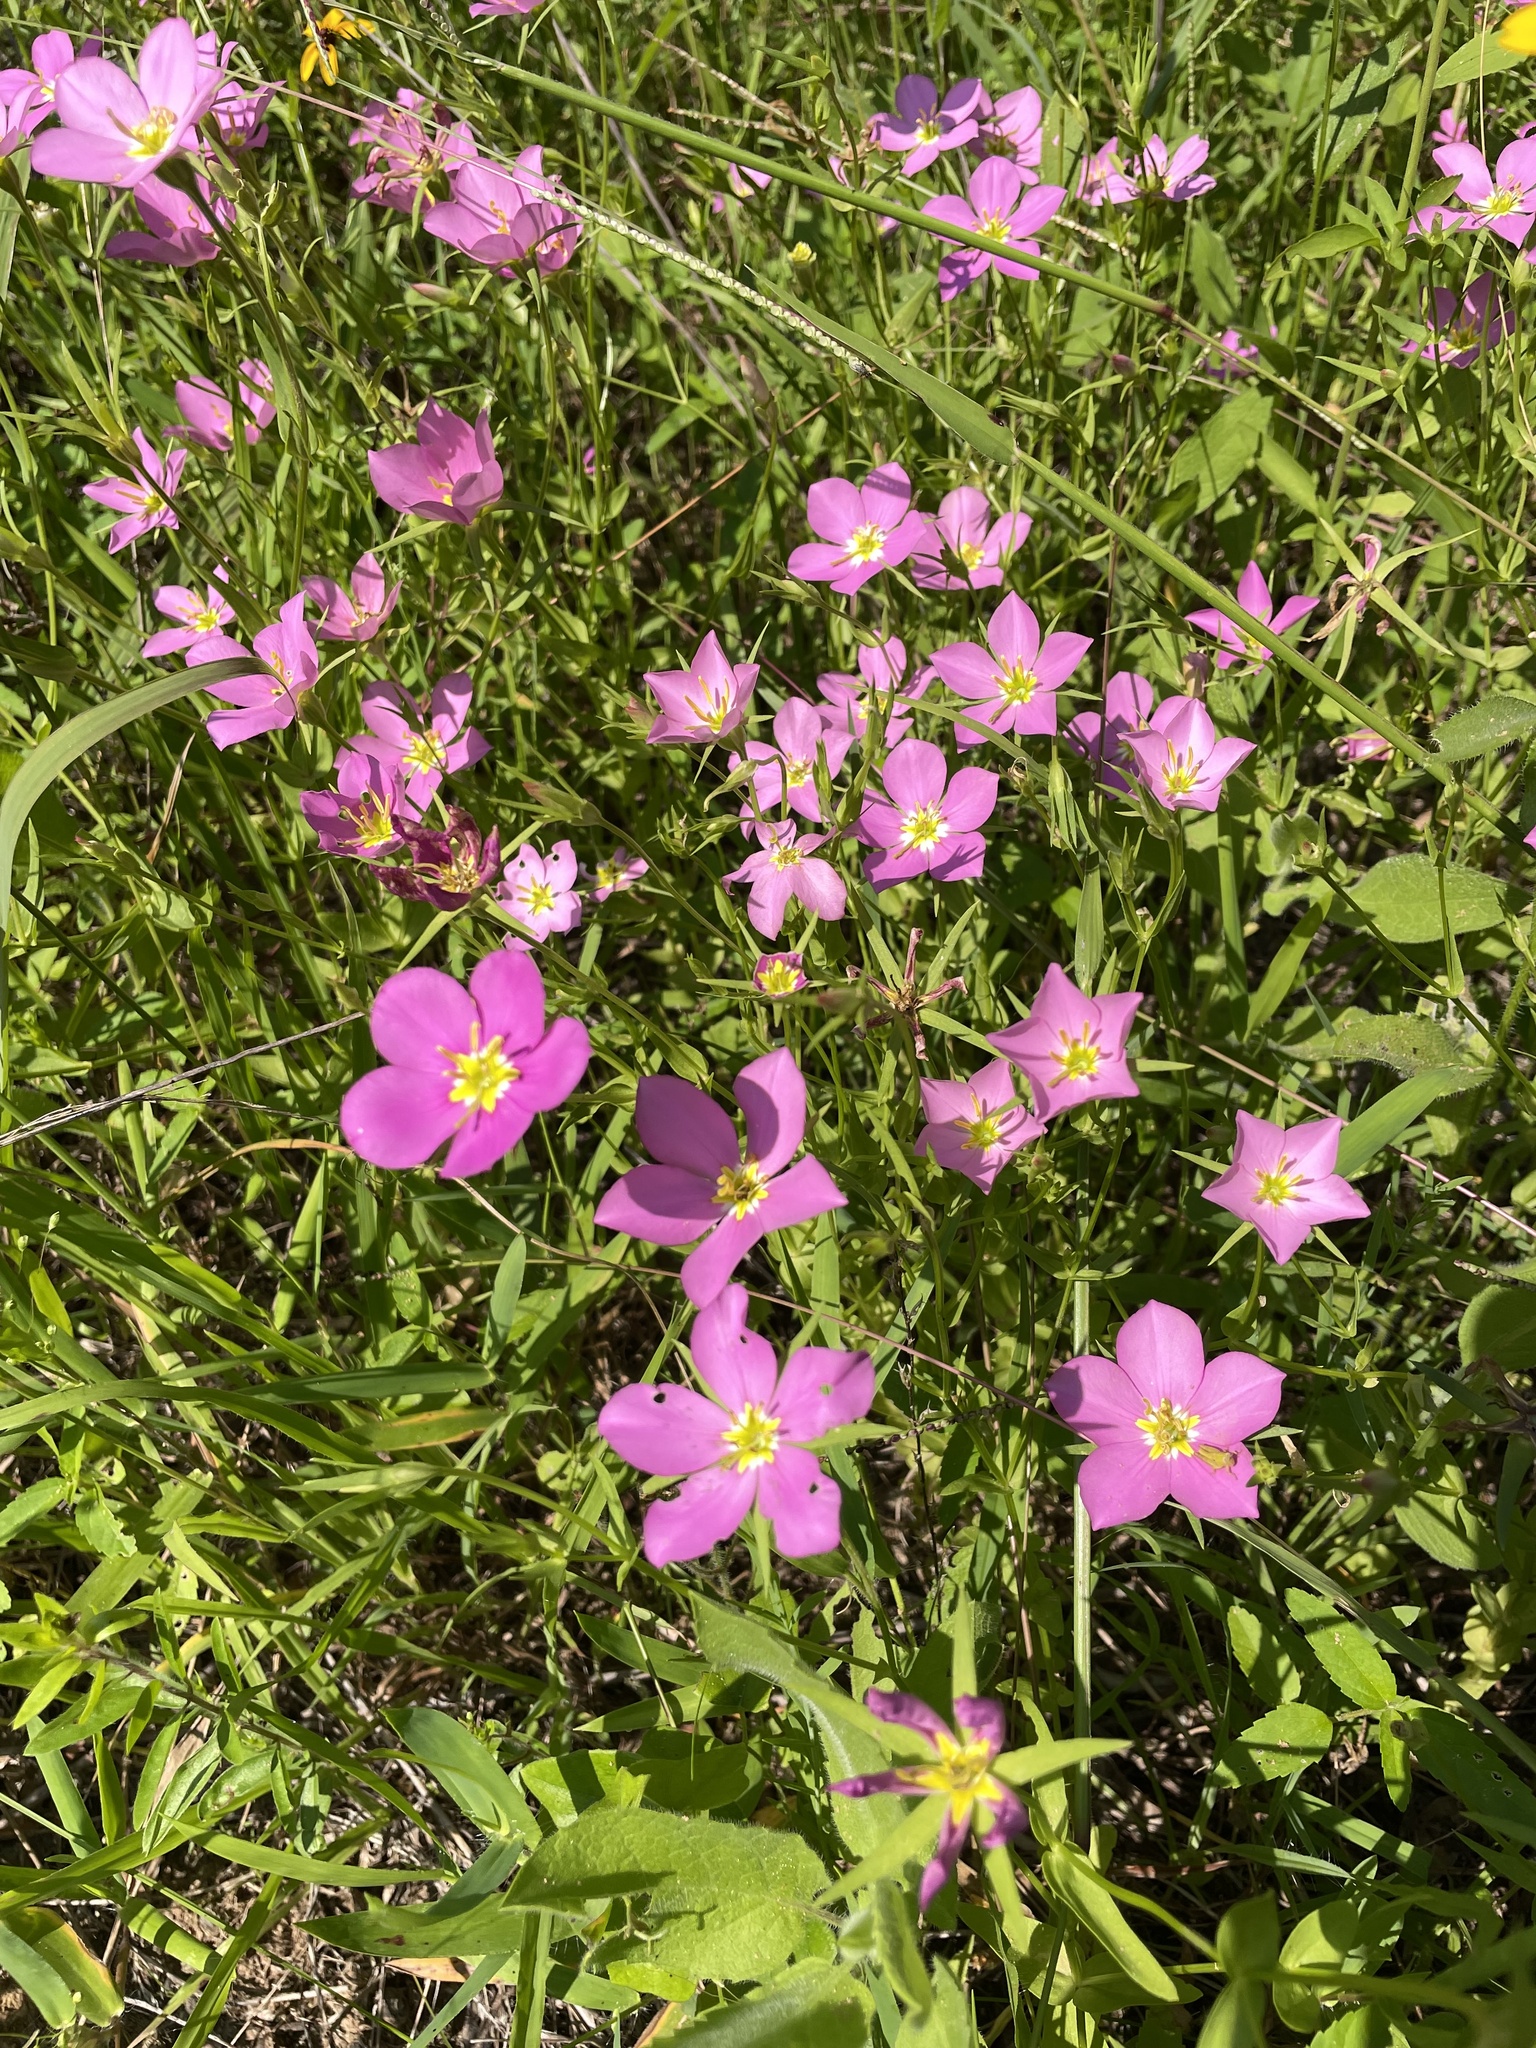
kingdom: Plantae
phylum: Tracheophyta
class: Magnoliopsida
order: Gentianales
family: Gentianaceae
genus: Sabatia
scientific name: Sabatia campestris
